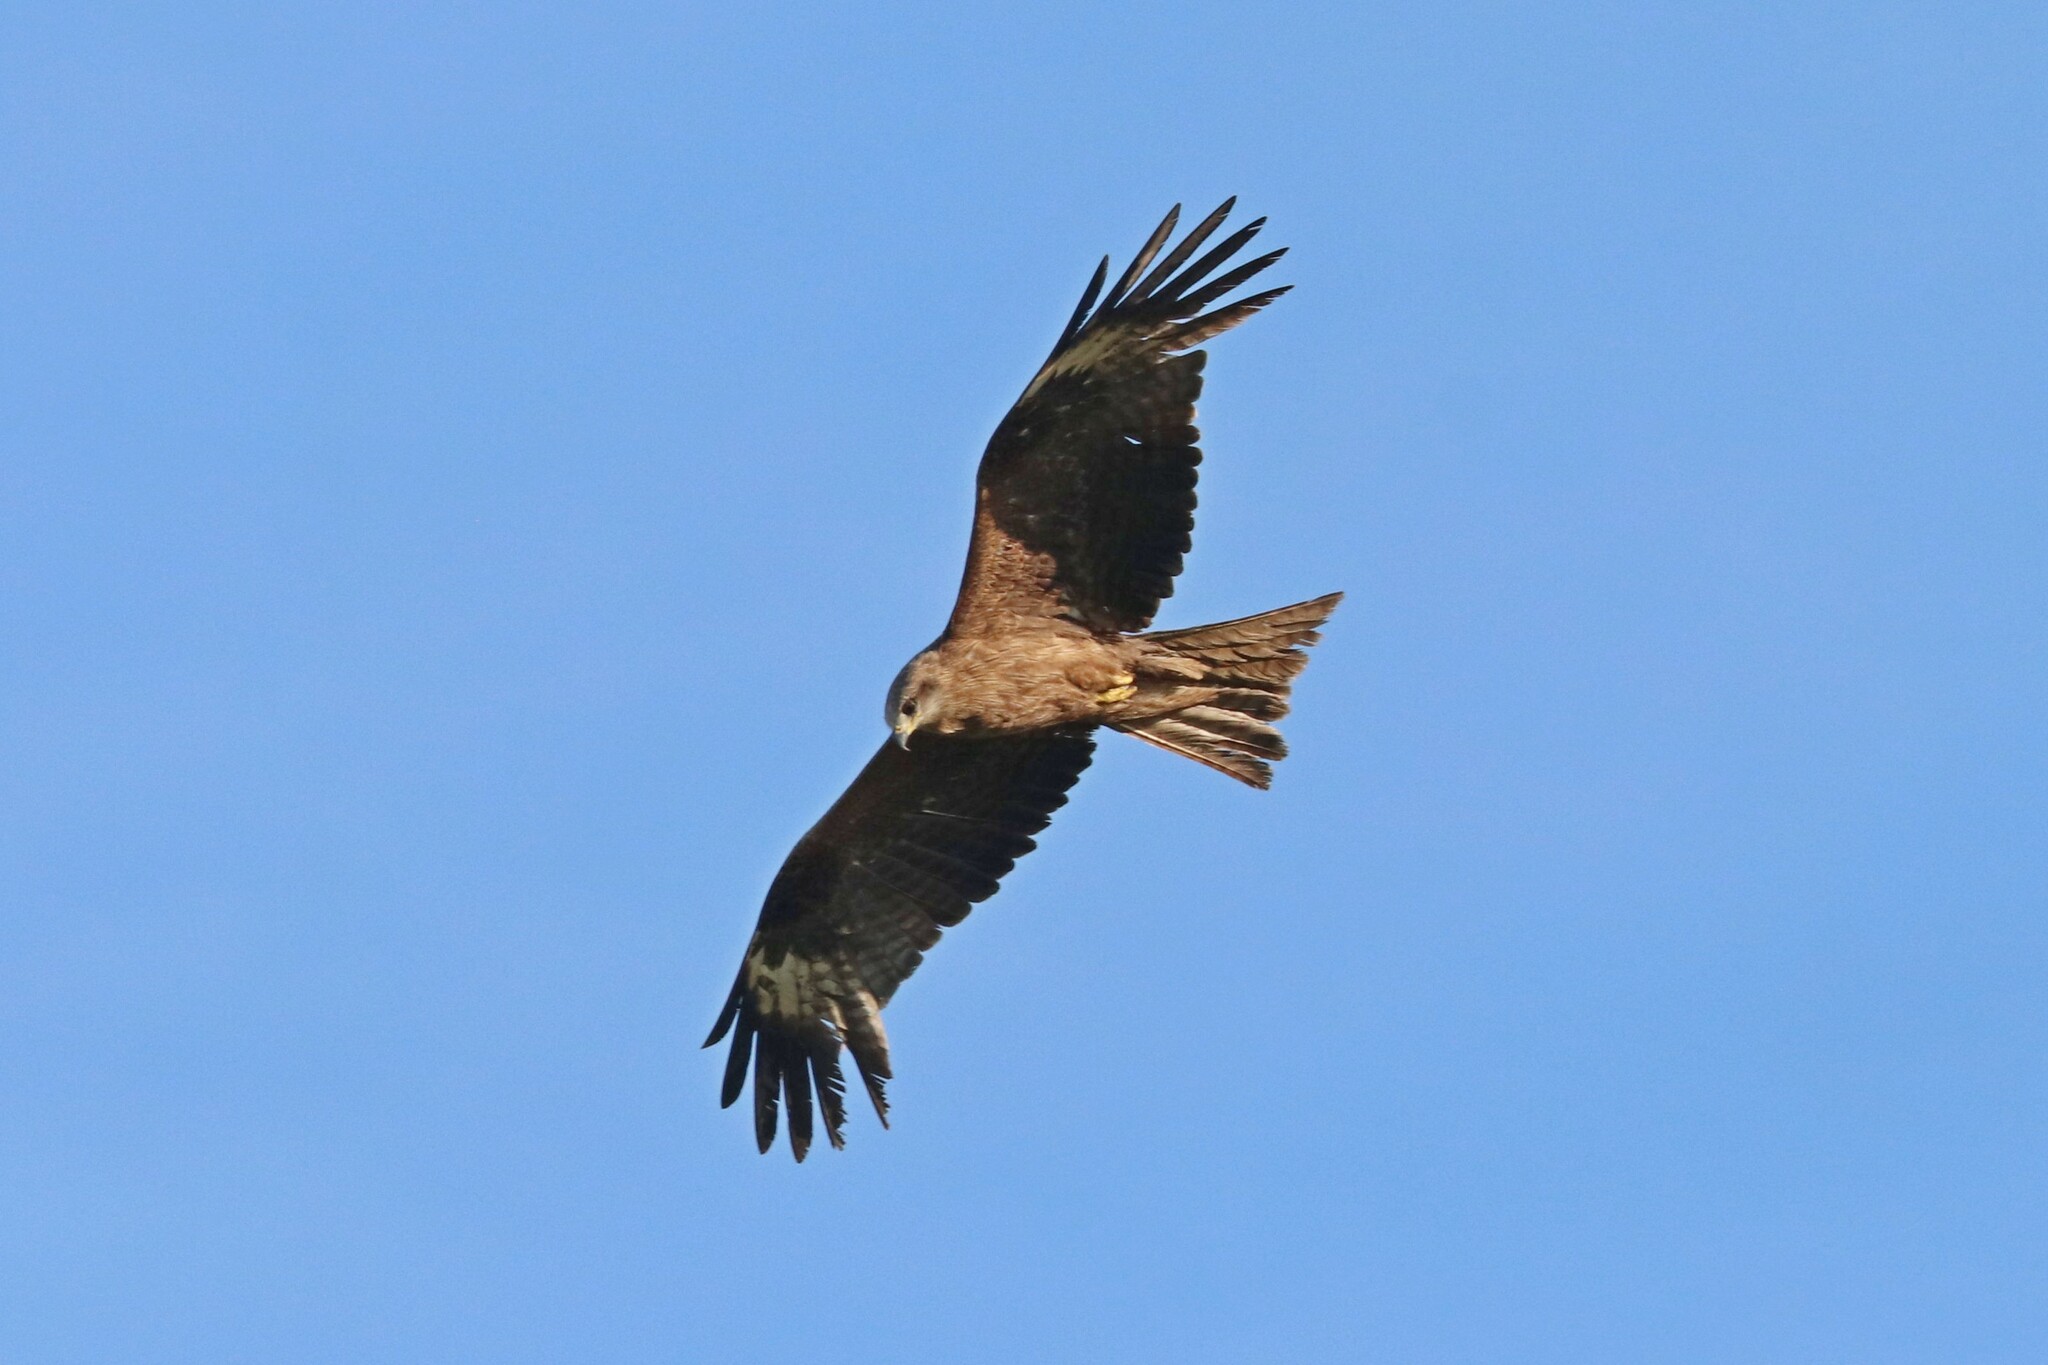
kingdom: Animalia
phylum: Chordata
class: Aves
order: Accipitriformes
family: Accipitridae
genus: Milvus
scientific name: Milvus migrans
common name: Black kite
